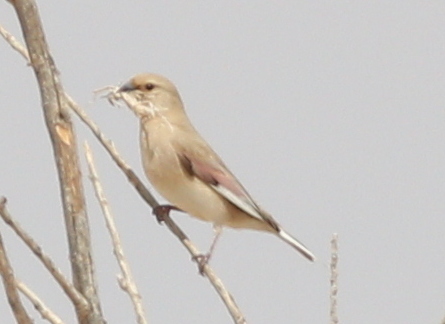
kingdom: Animalia
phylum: Chordata
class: Aves
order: Passeriformes
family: Fringillidae
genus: Rhodospiza
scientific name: Rhodospiza obsoleta
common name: Desert finch
